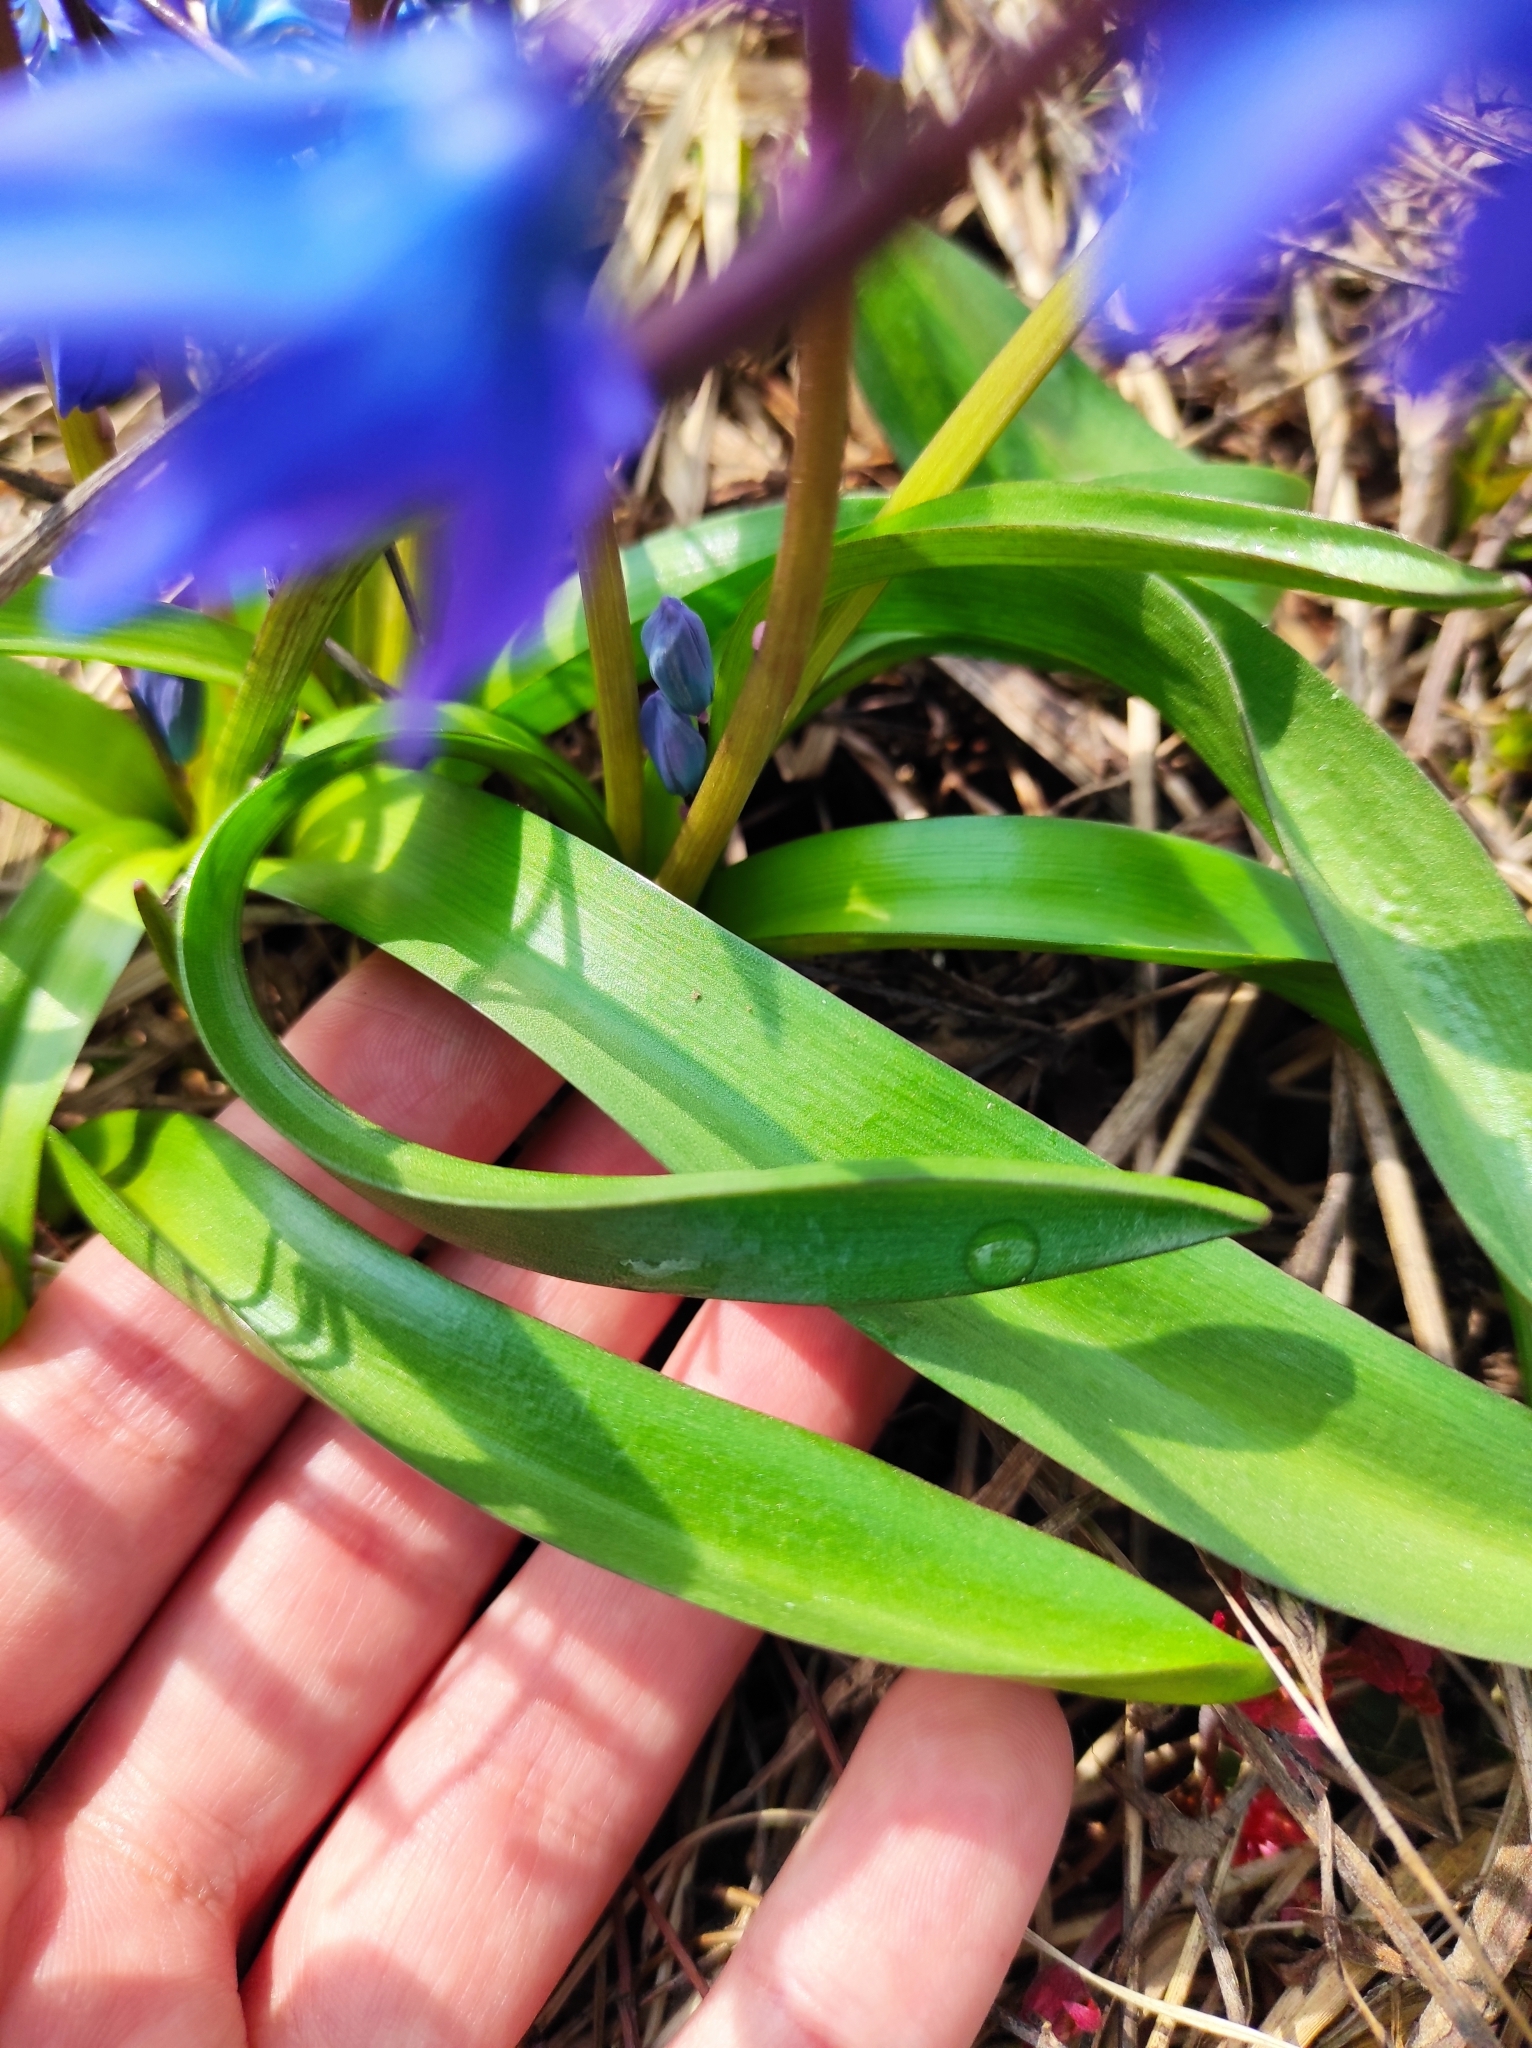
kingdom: Plantae
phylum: Tracheophyta
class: Liliopsida
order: Asparagales
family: Asparagaceae
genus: Scilla
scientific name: Scilla siberica
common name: Siberian squill
